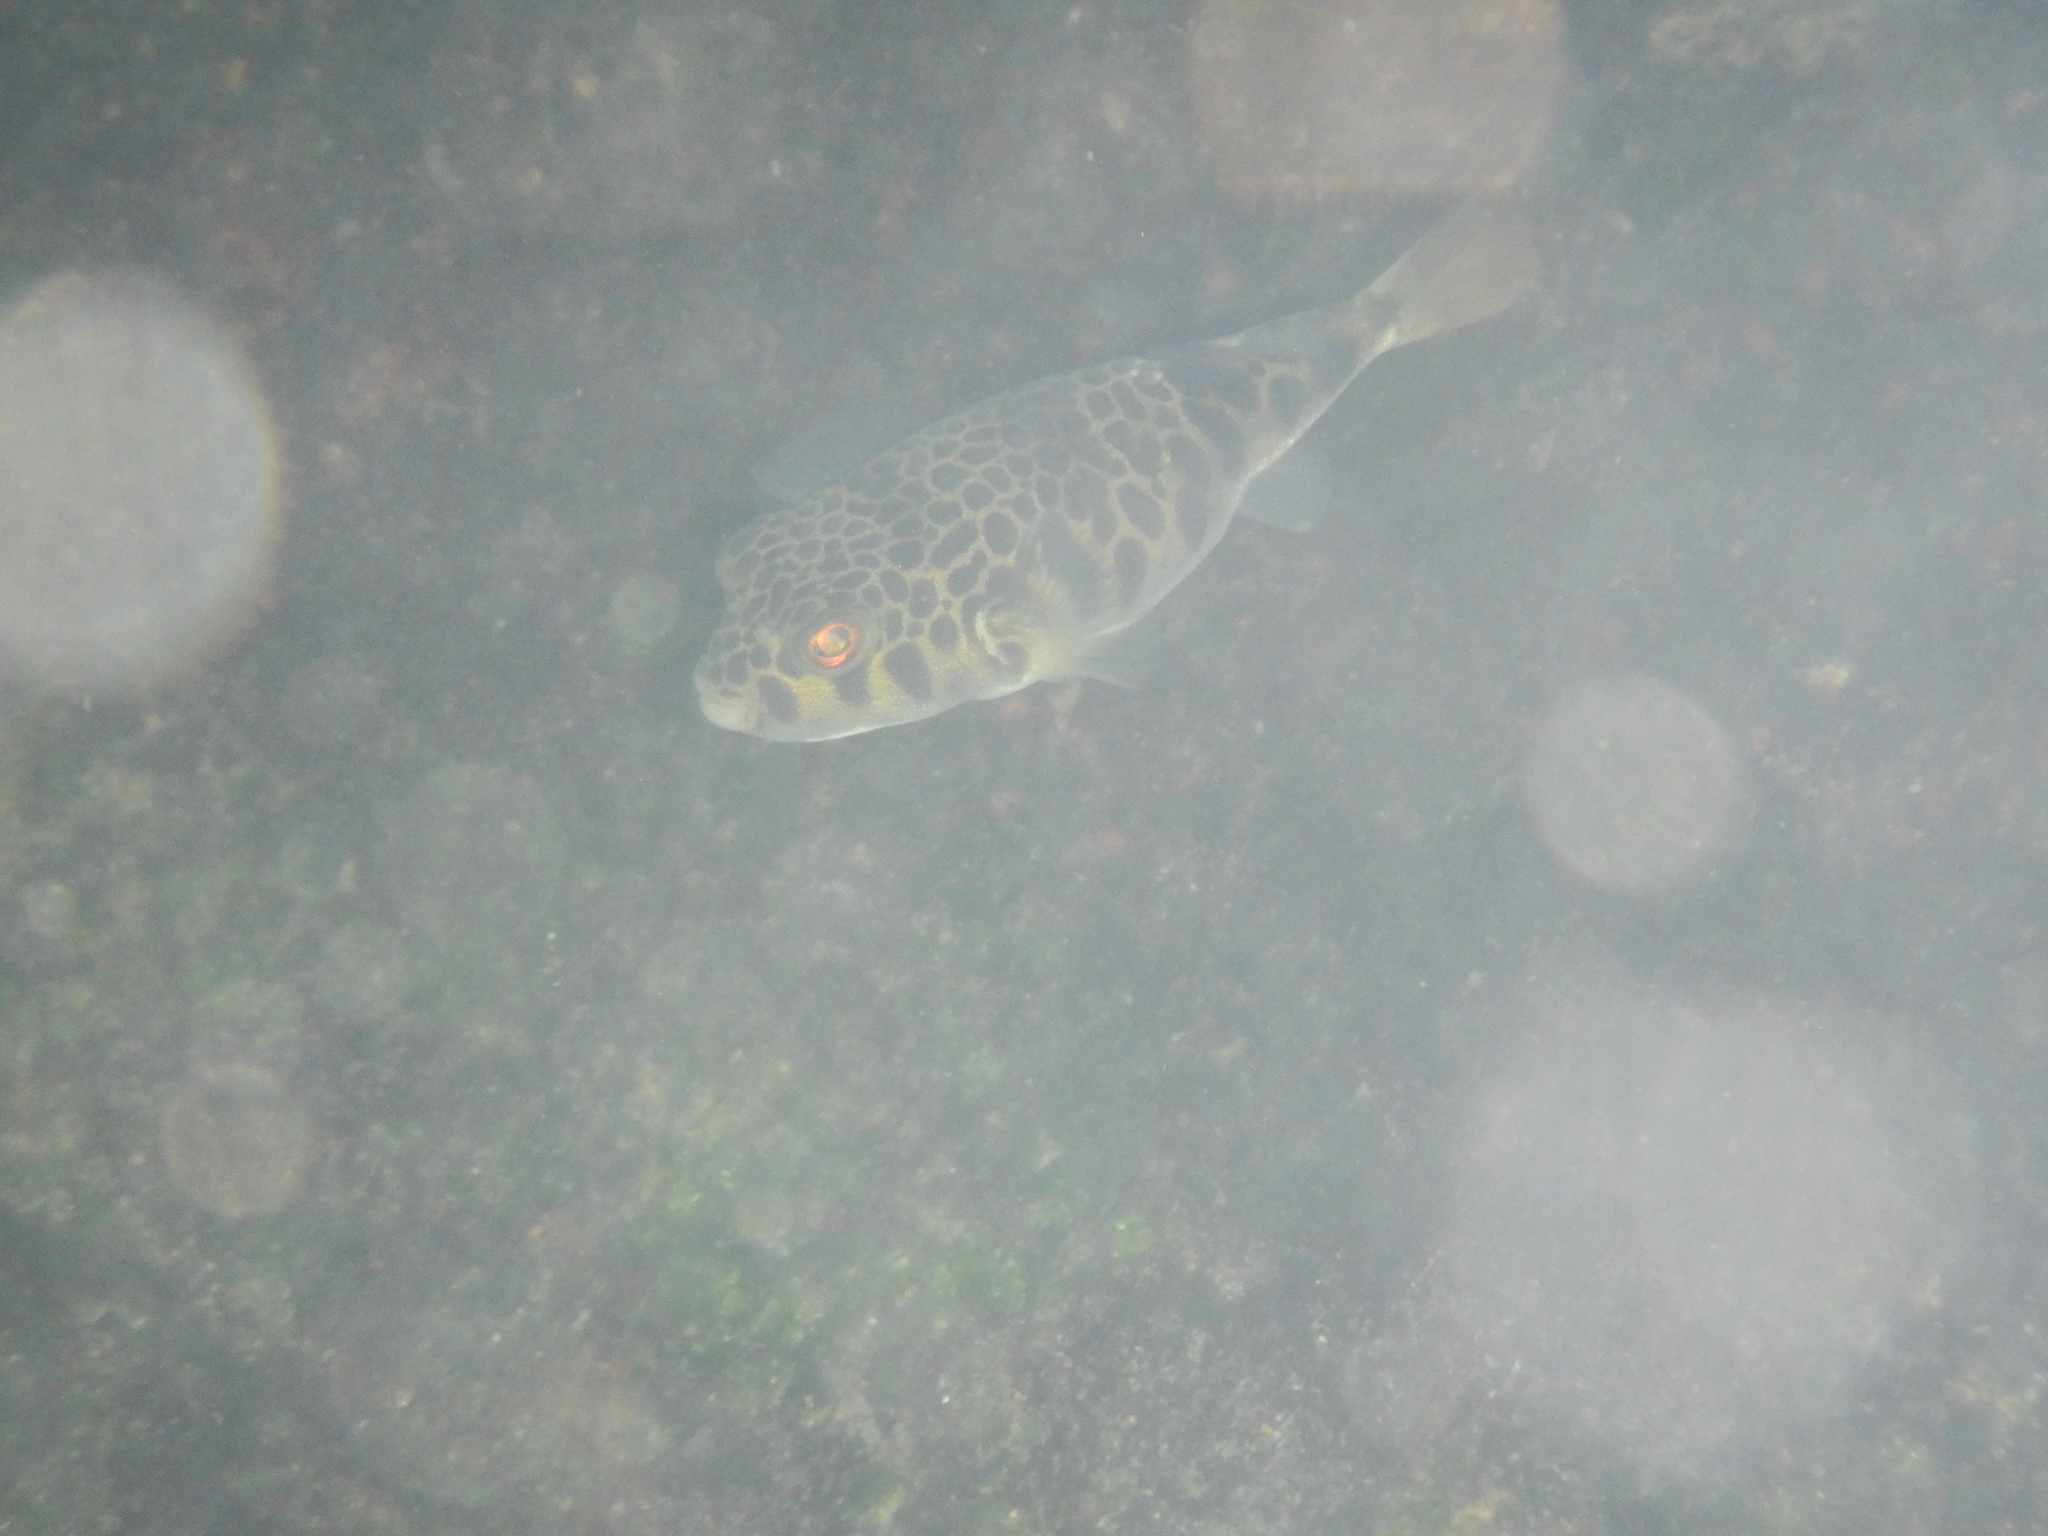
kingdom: Animalia
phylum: Chordata
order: Tetraodontiformes
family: Tetraodontidae
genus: Tetractenos
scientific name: Tetractenos glaber
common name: Smooth toadfish
